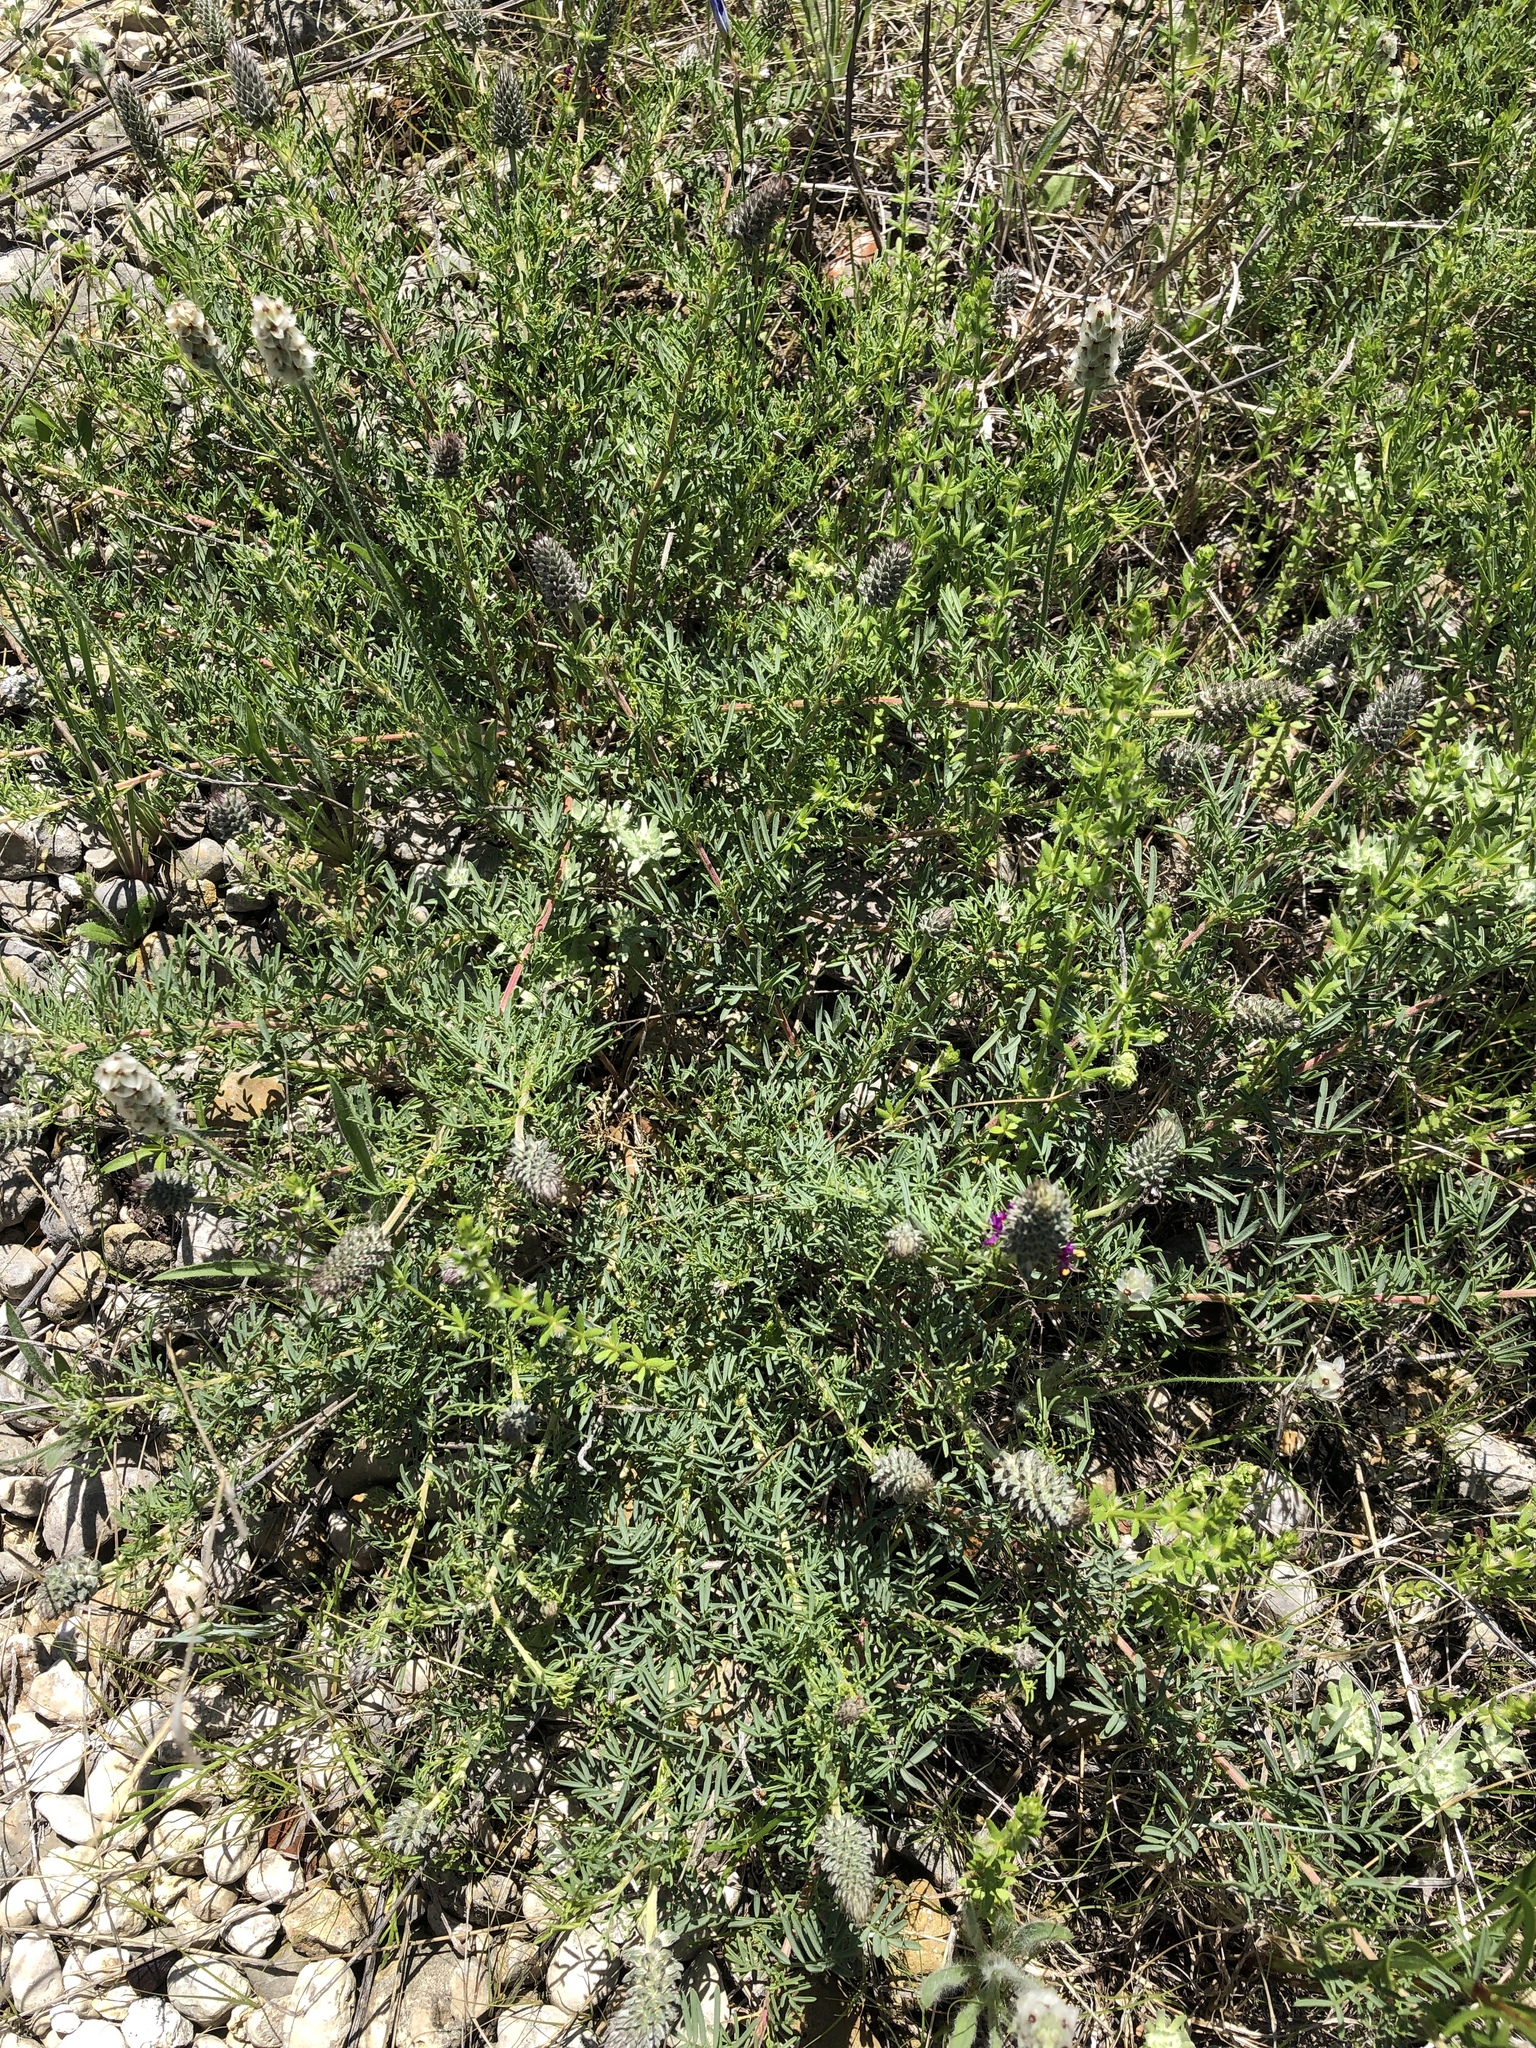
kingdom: Plantae
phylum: Tracheophyta
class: Magnoliopsida
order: Fabales
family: Fabaceae
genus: Dalea
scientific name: Dalea reverchonii
